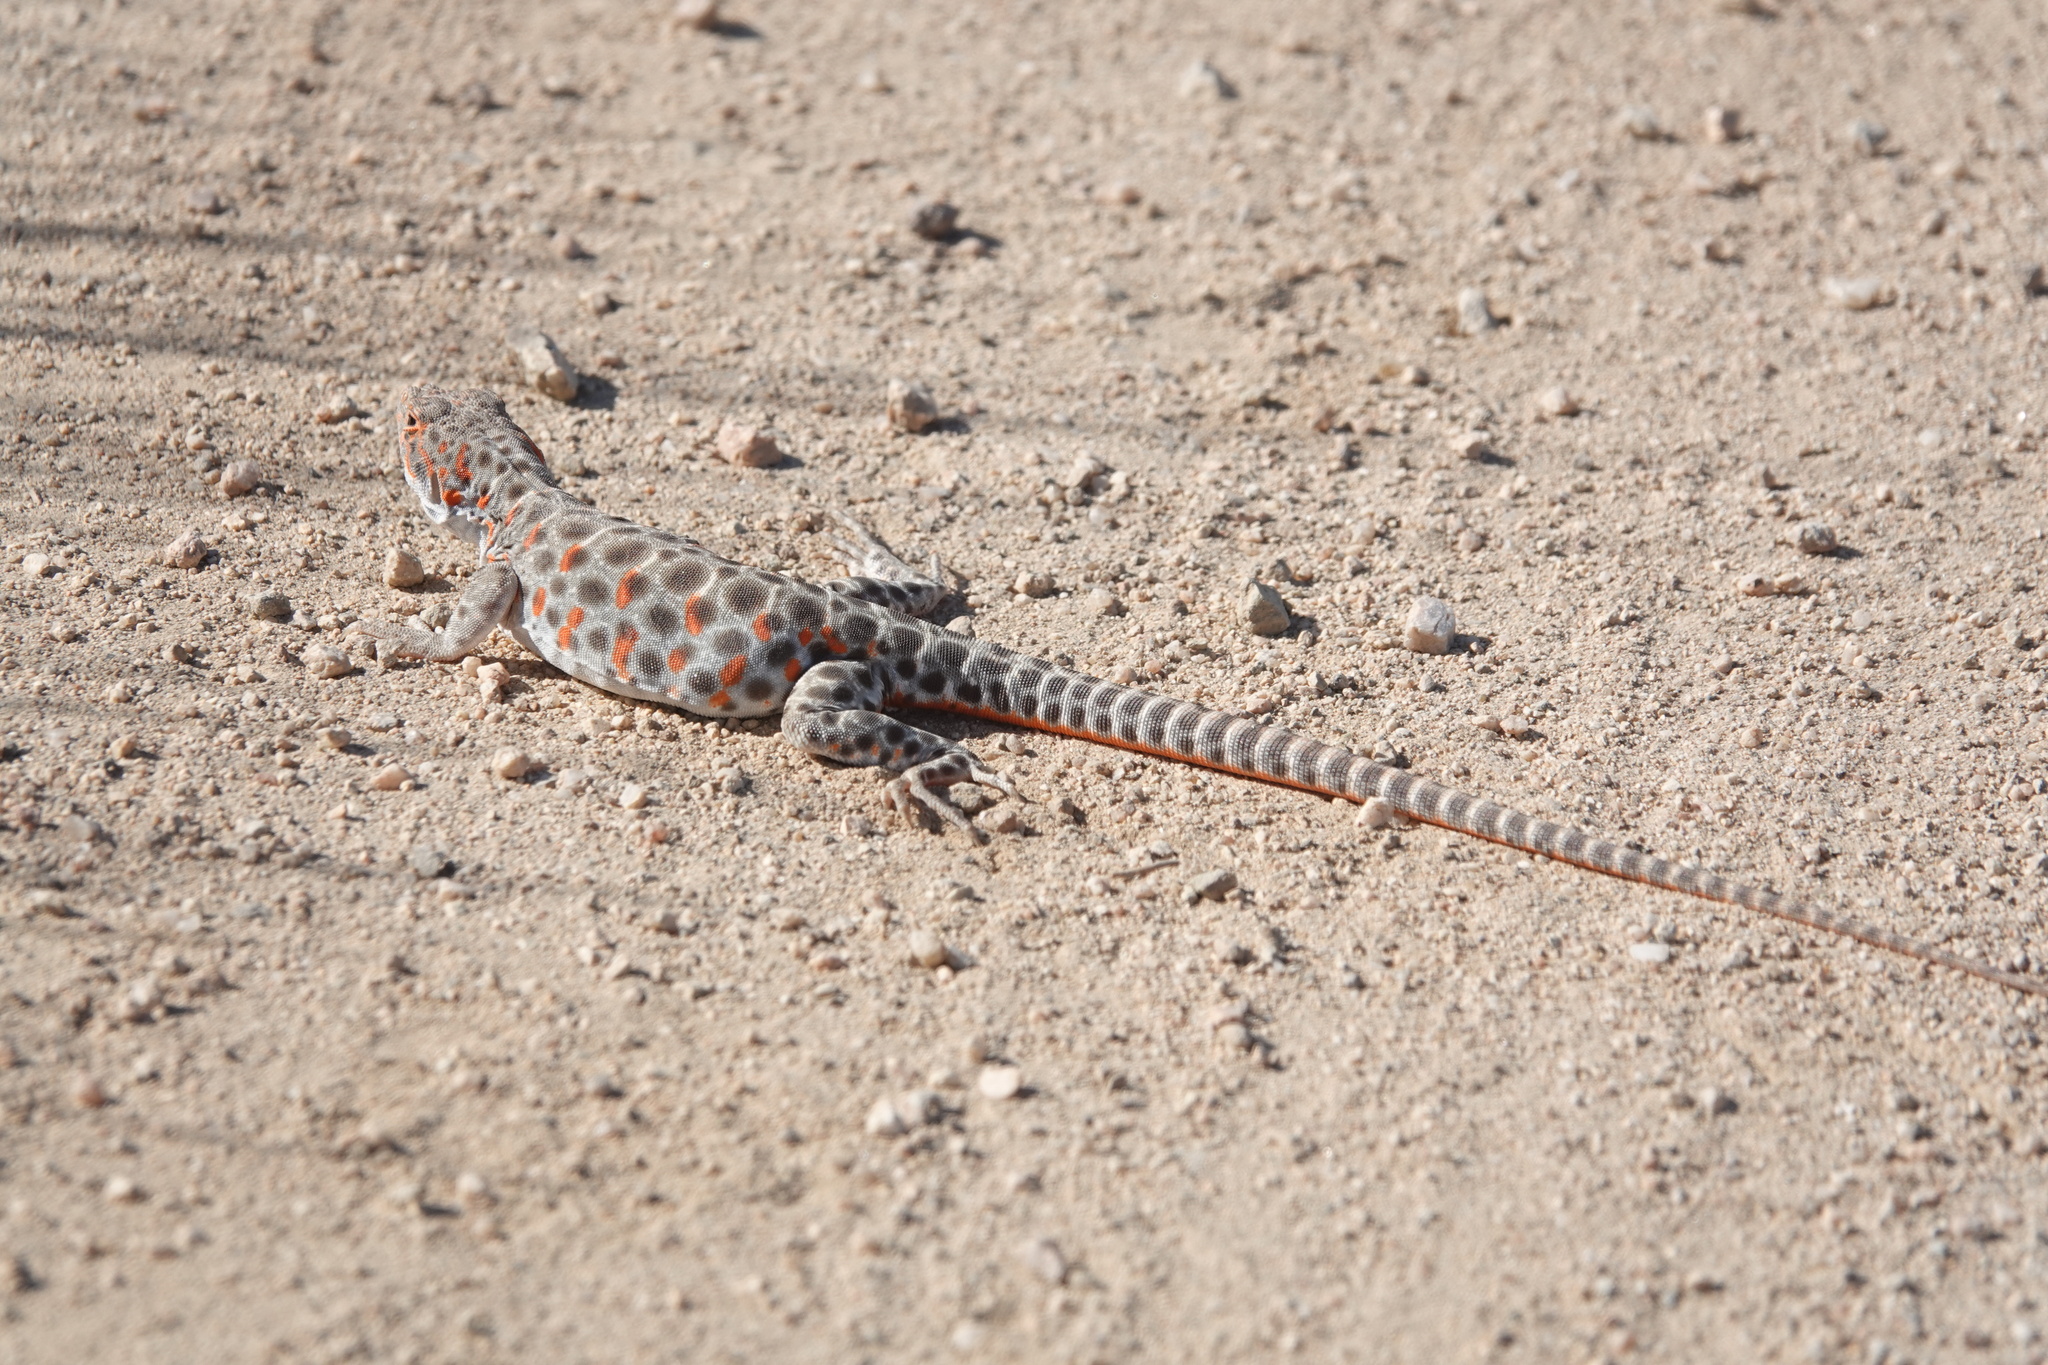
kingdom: Animalia
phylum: Chordata
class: Squamata
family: Crotaphytidae
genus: Gambelia
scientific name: Gambelia wislizenii
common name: Longnose leopard lizard
